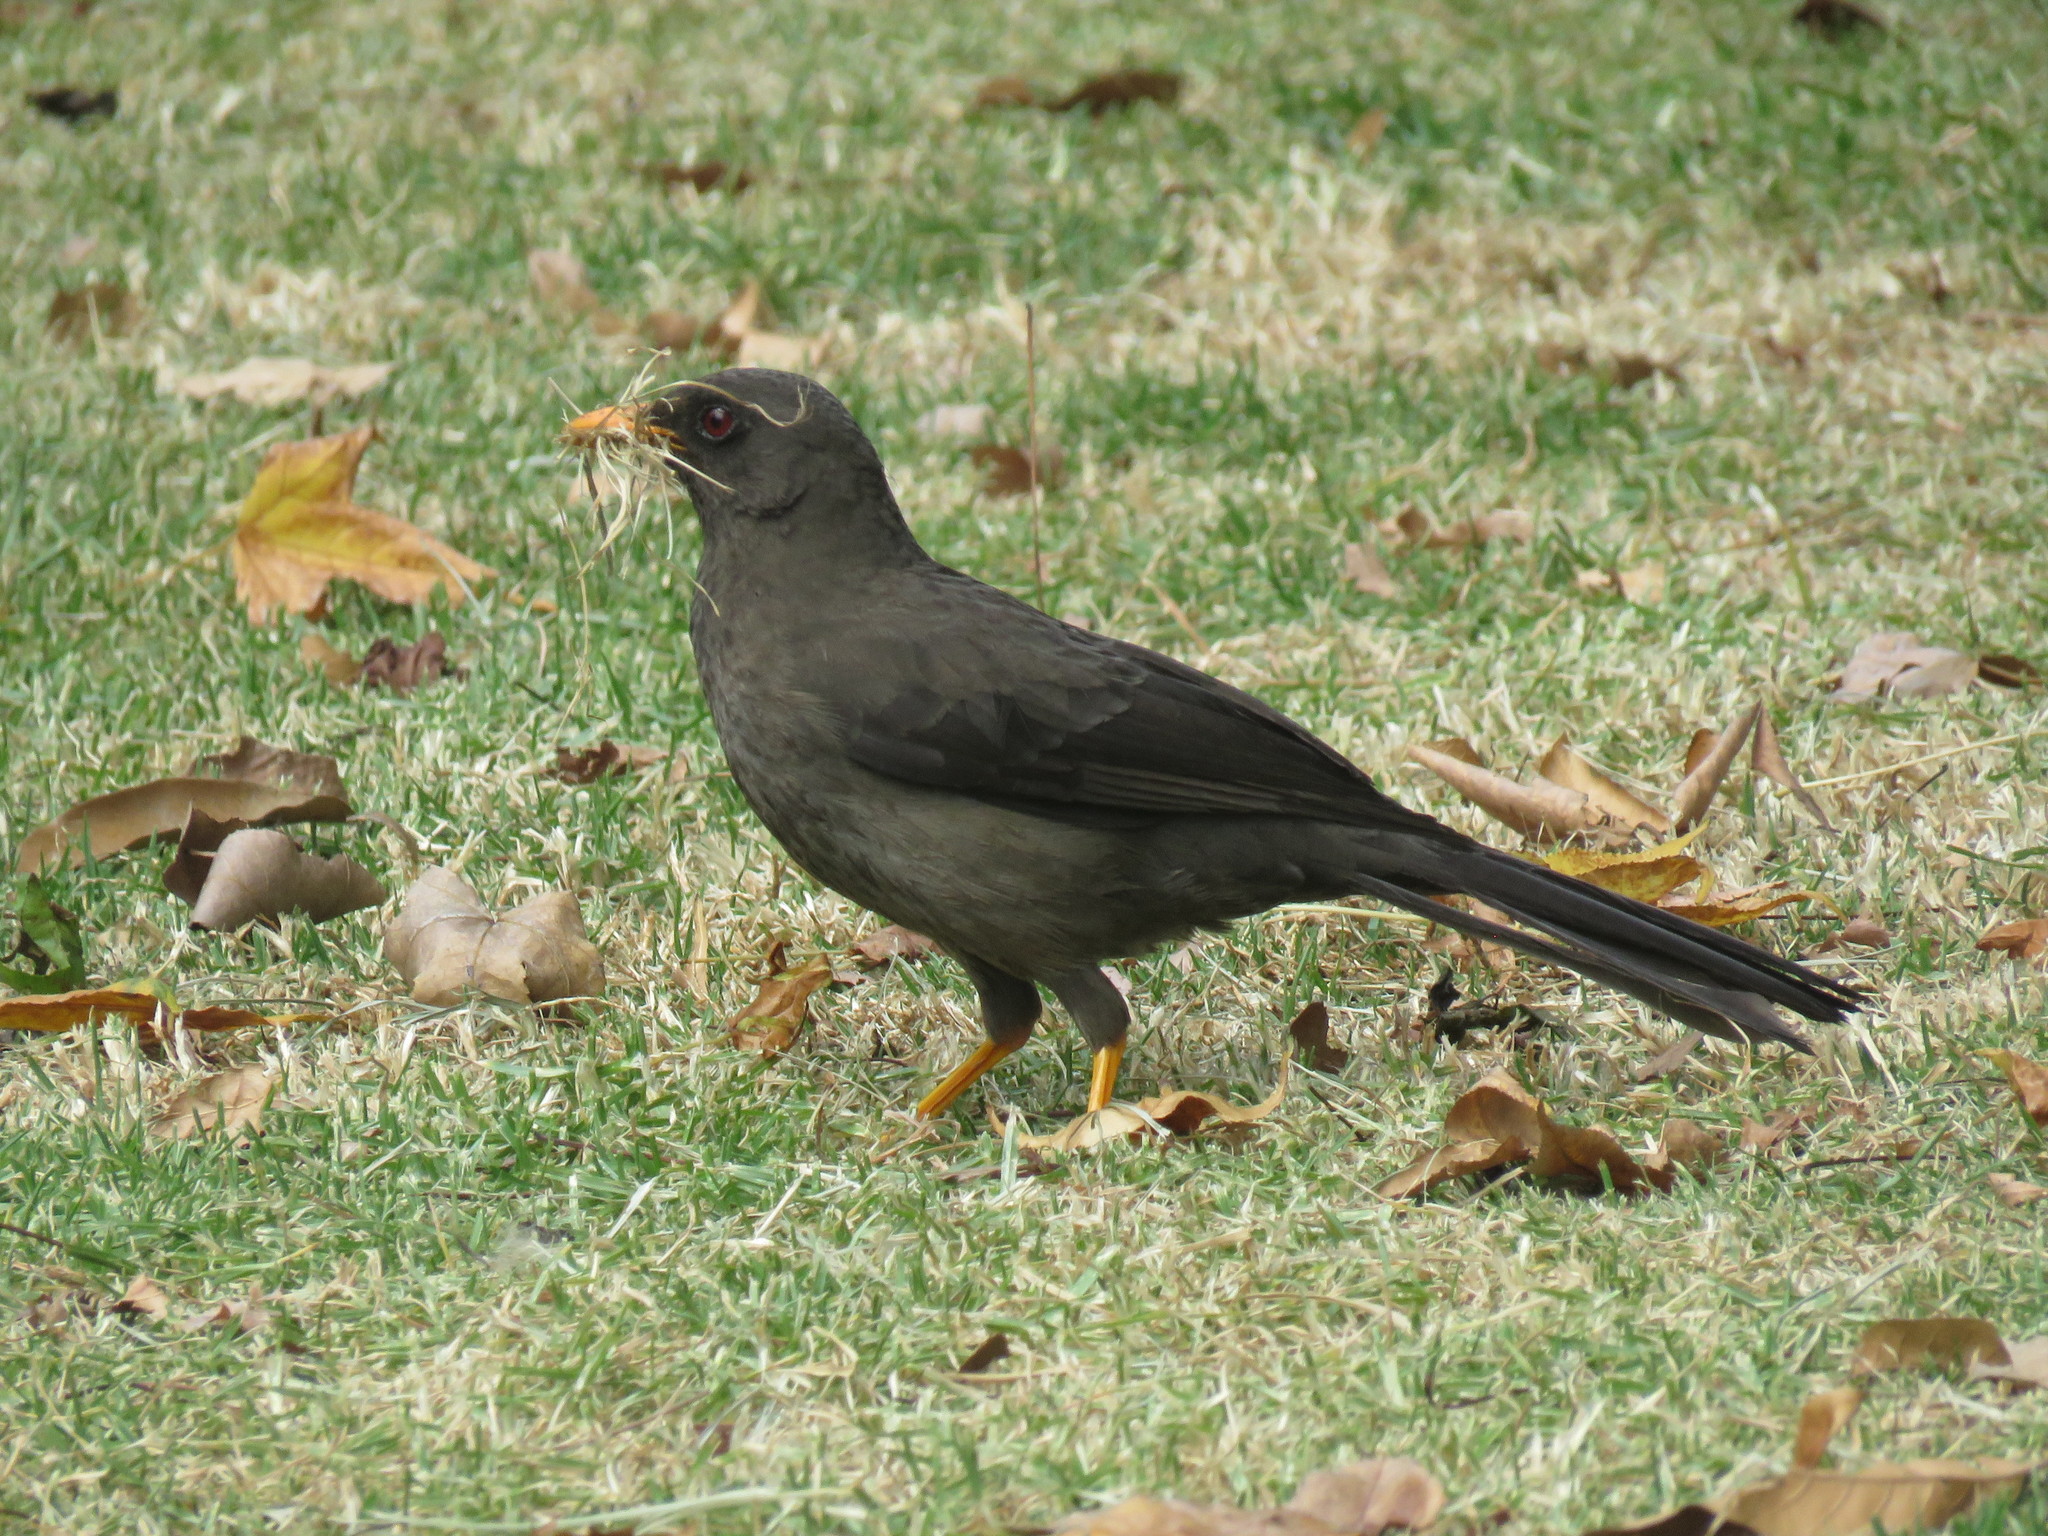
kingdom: Animalia
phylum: Chordata
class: Aves
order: Passeriformes
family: Turdidae
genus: Turdus
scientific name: Turdus fuscater
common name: Great thrush
